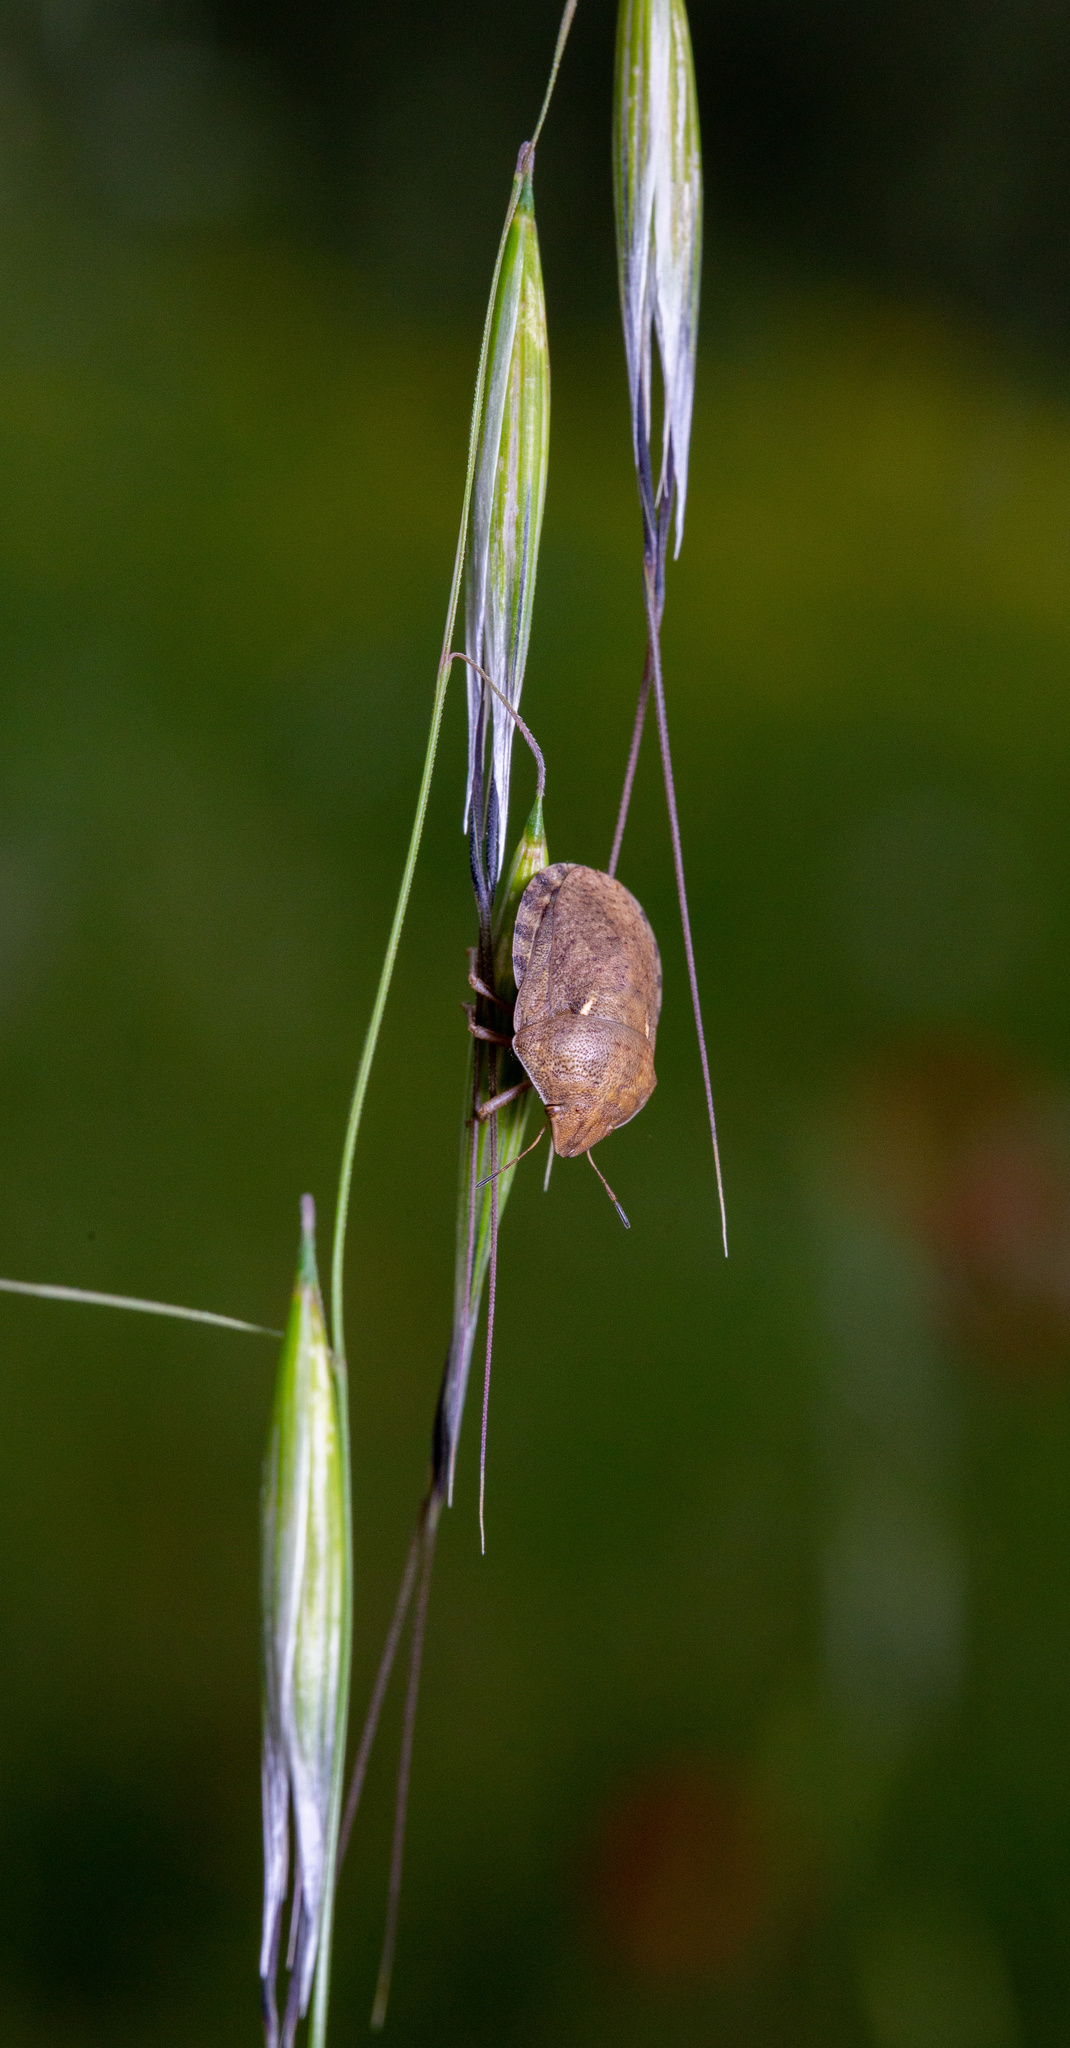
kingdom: Animalia
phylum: Arthropoda
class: Insecta
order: Hemiptera
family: Scutelleridae
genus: Eurygaster
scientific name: Eurygaster maura
